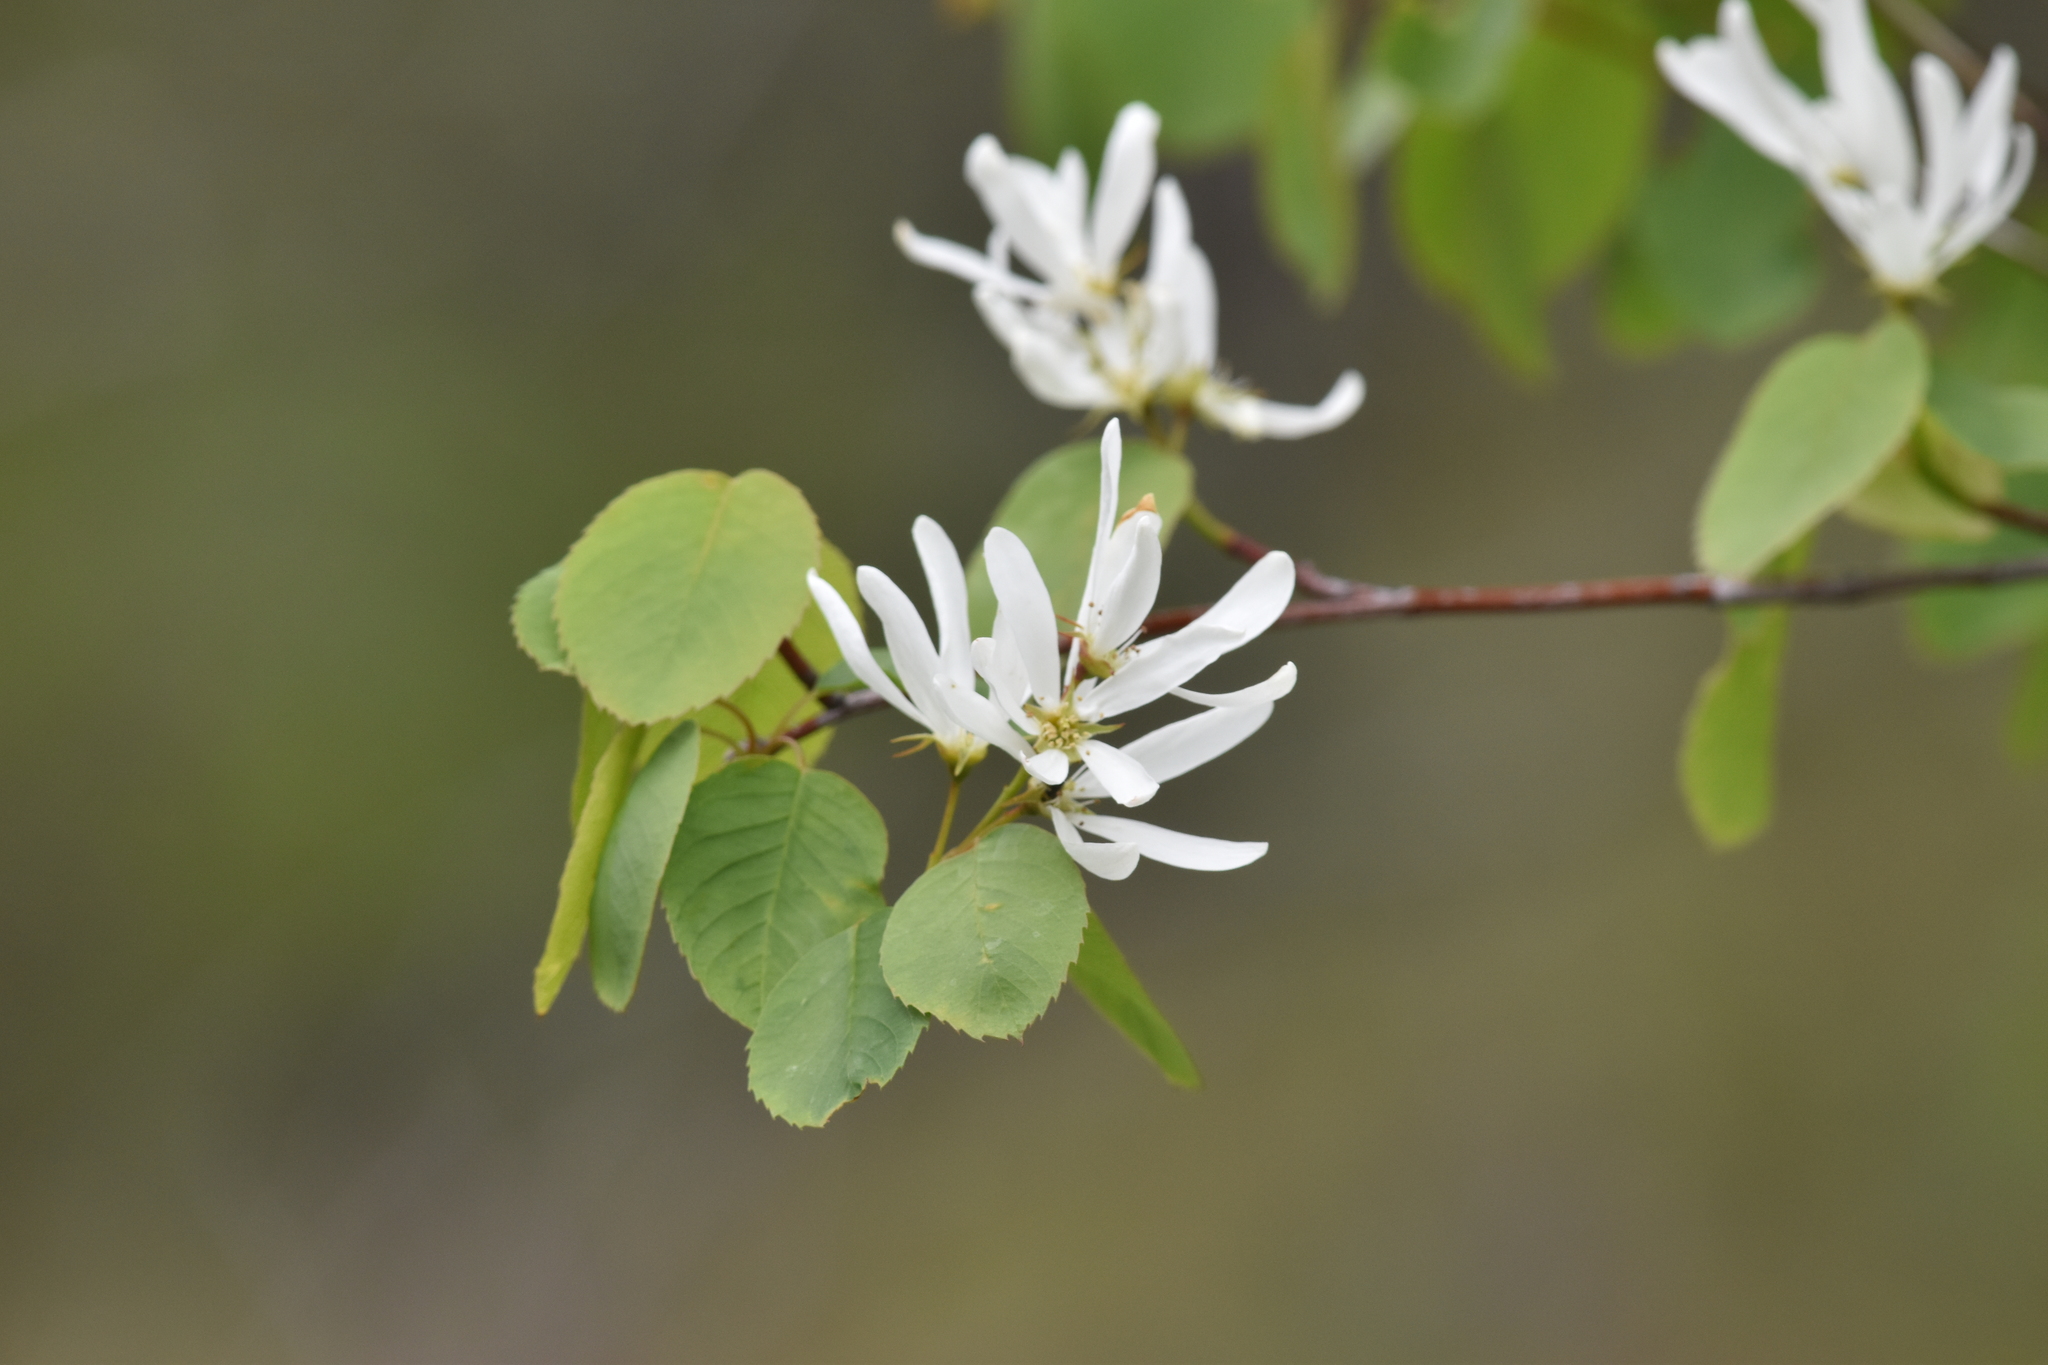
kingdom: Plantae
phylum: Tracheophyta
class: Magnoliopsida
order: Rosales
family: Rosaceae
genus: Amelanchier
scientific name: Amelanchier alnifolia
